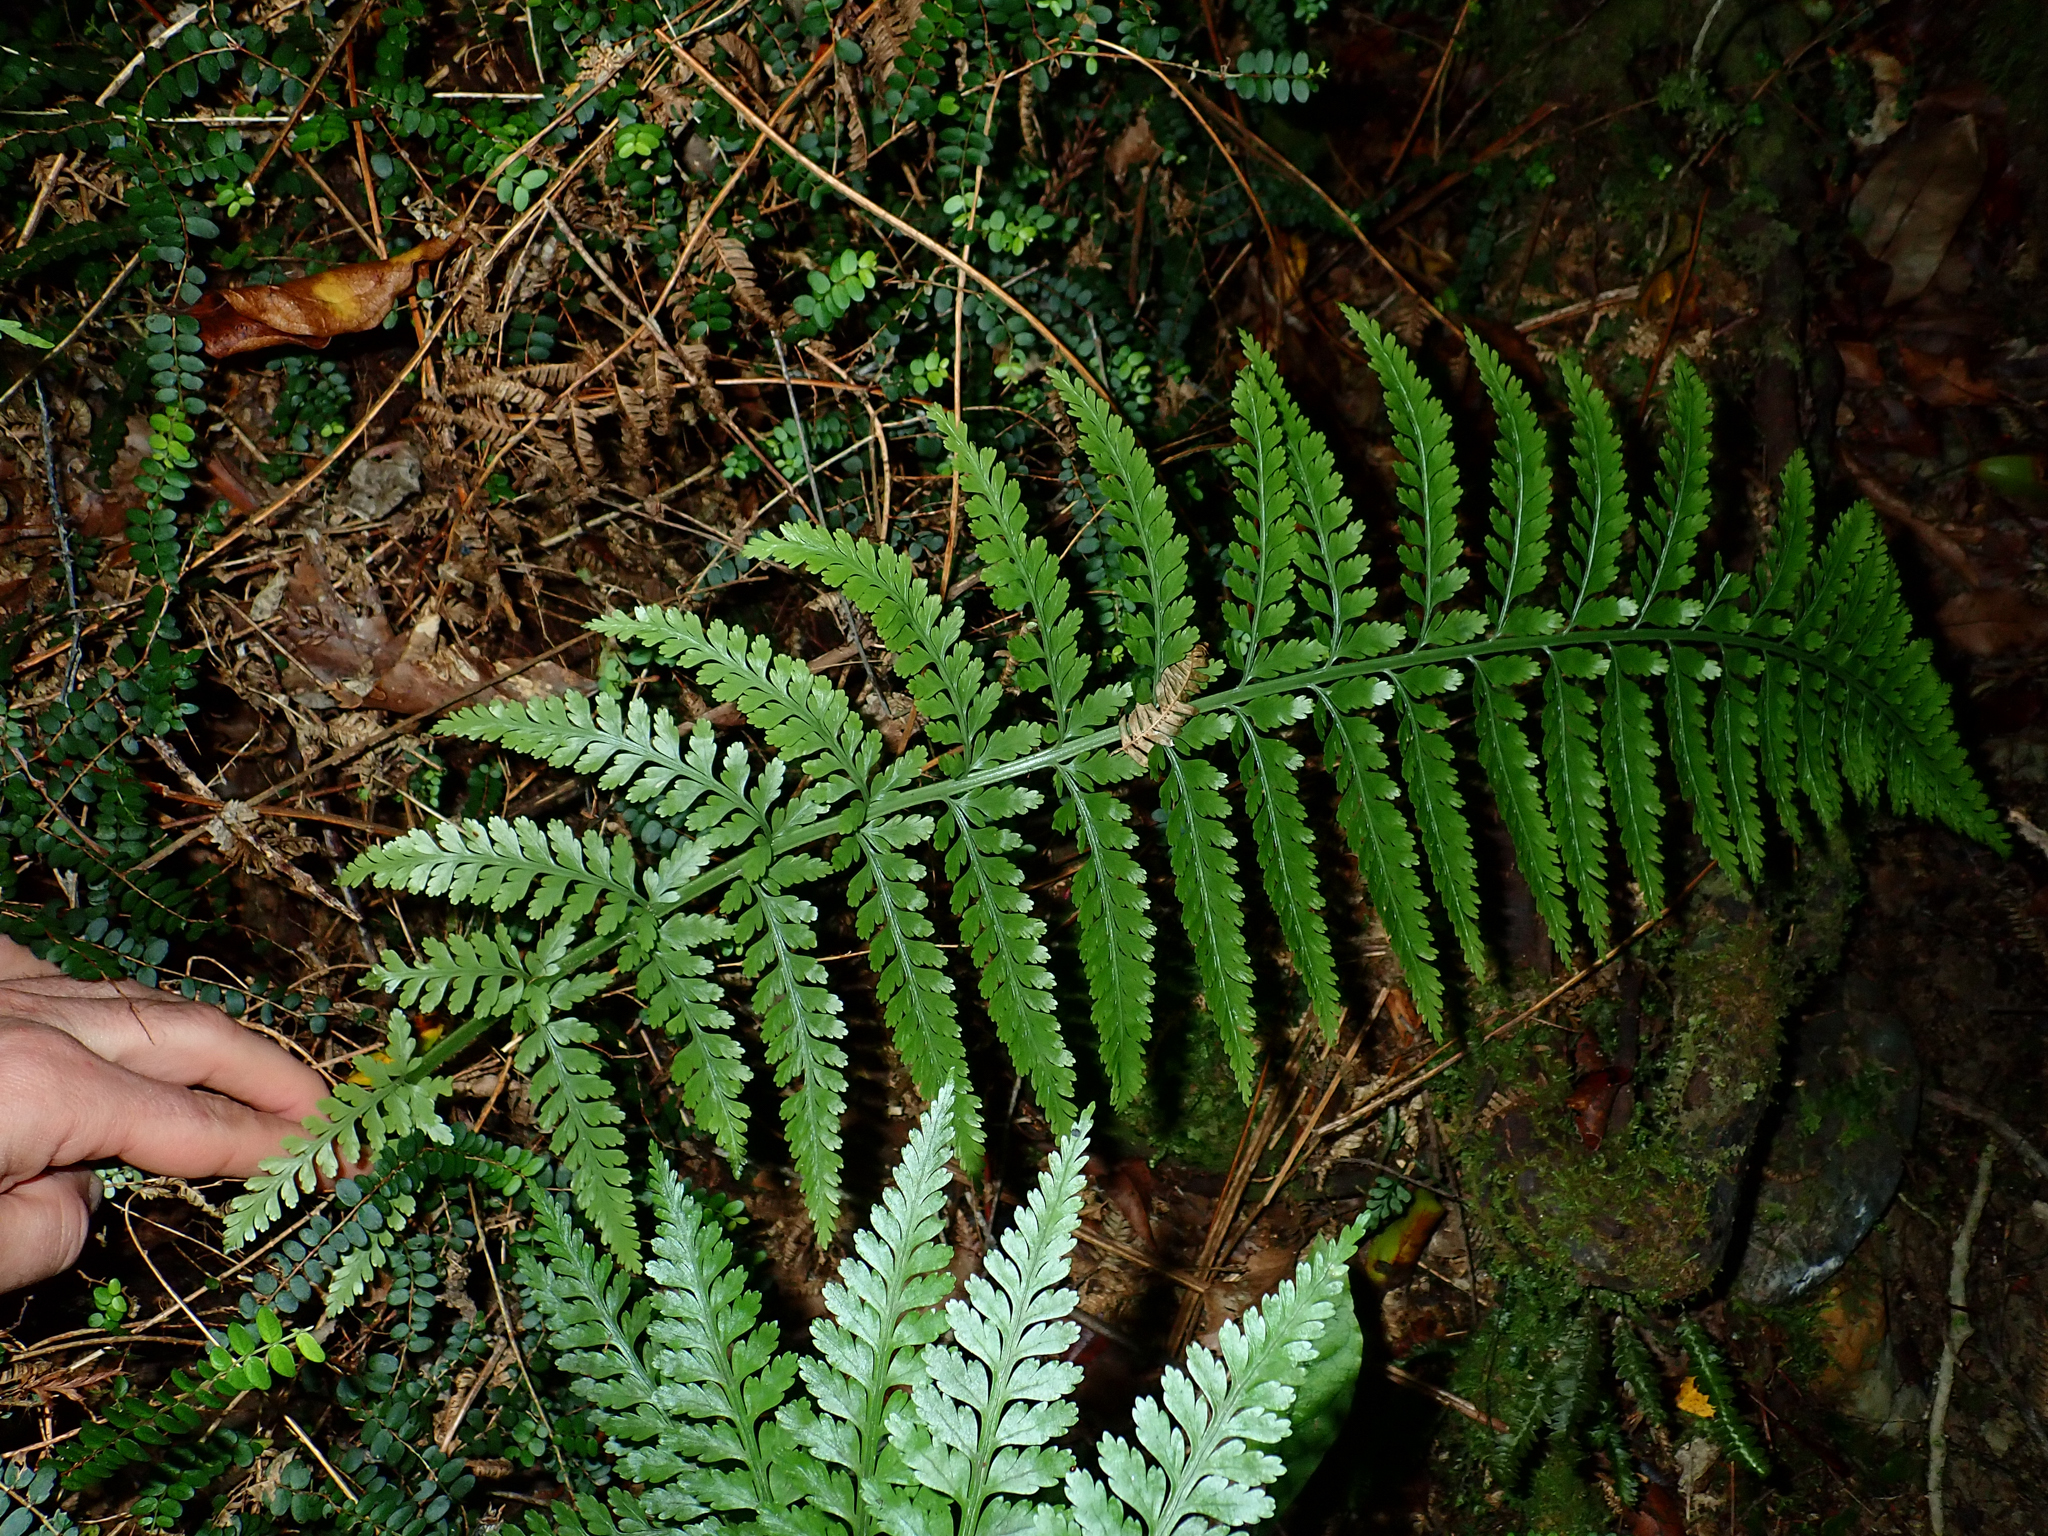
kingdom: Plantae
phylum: Tracheophyta
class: Polypodiopsida
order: Polypodiales
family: Aspleniaceae
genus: Asplenium
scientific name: Asplenium bulbiferum
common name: Mother fern
